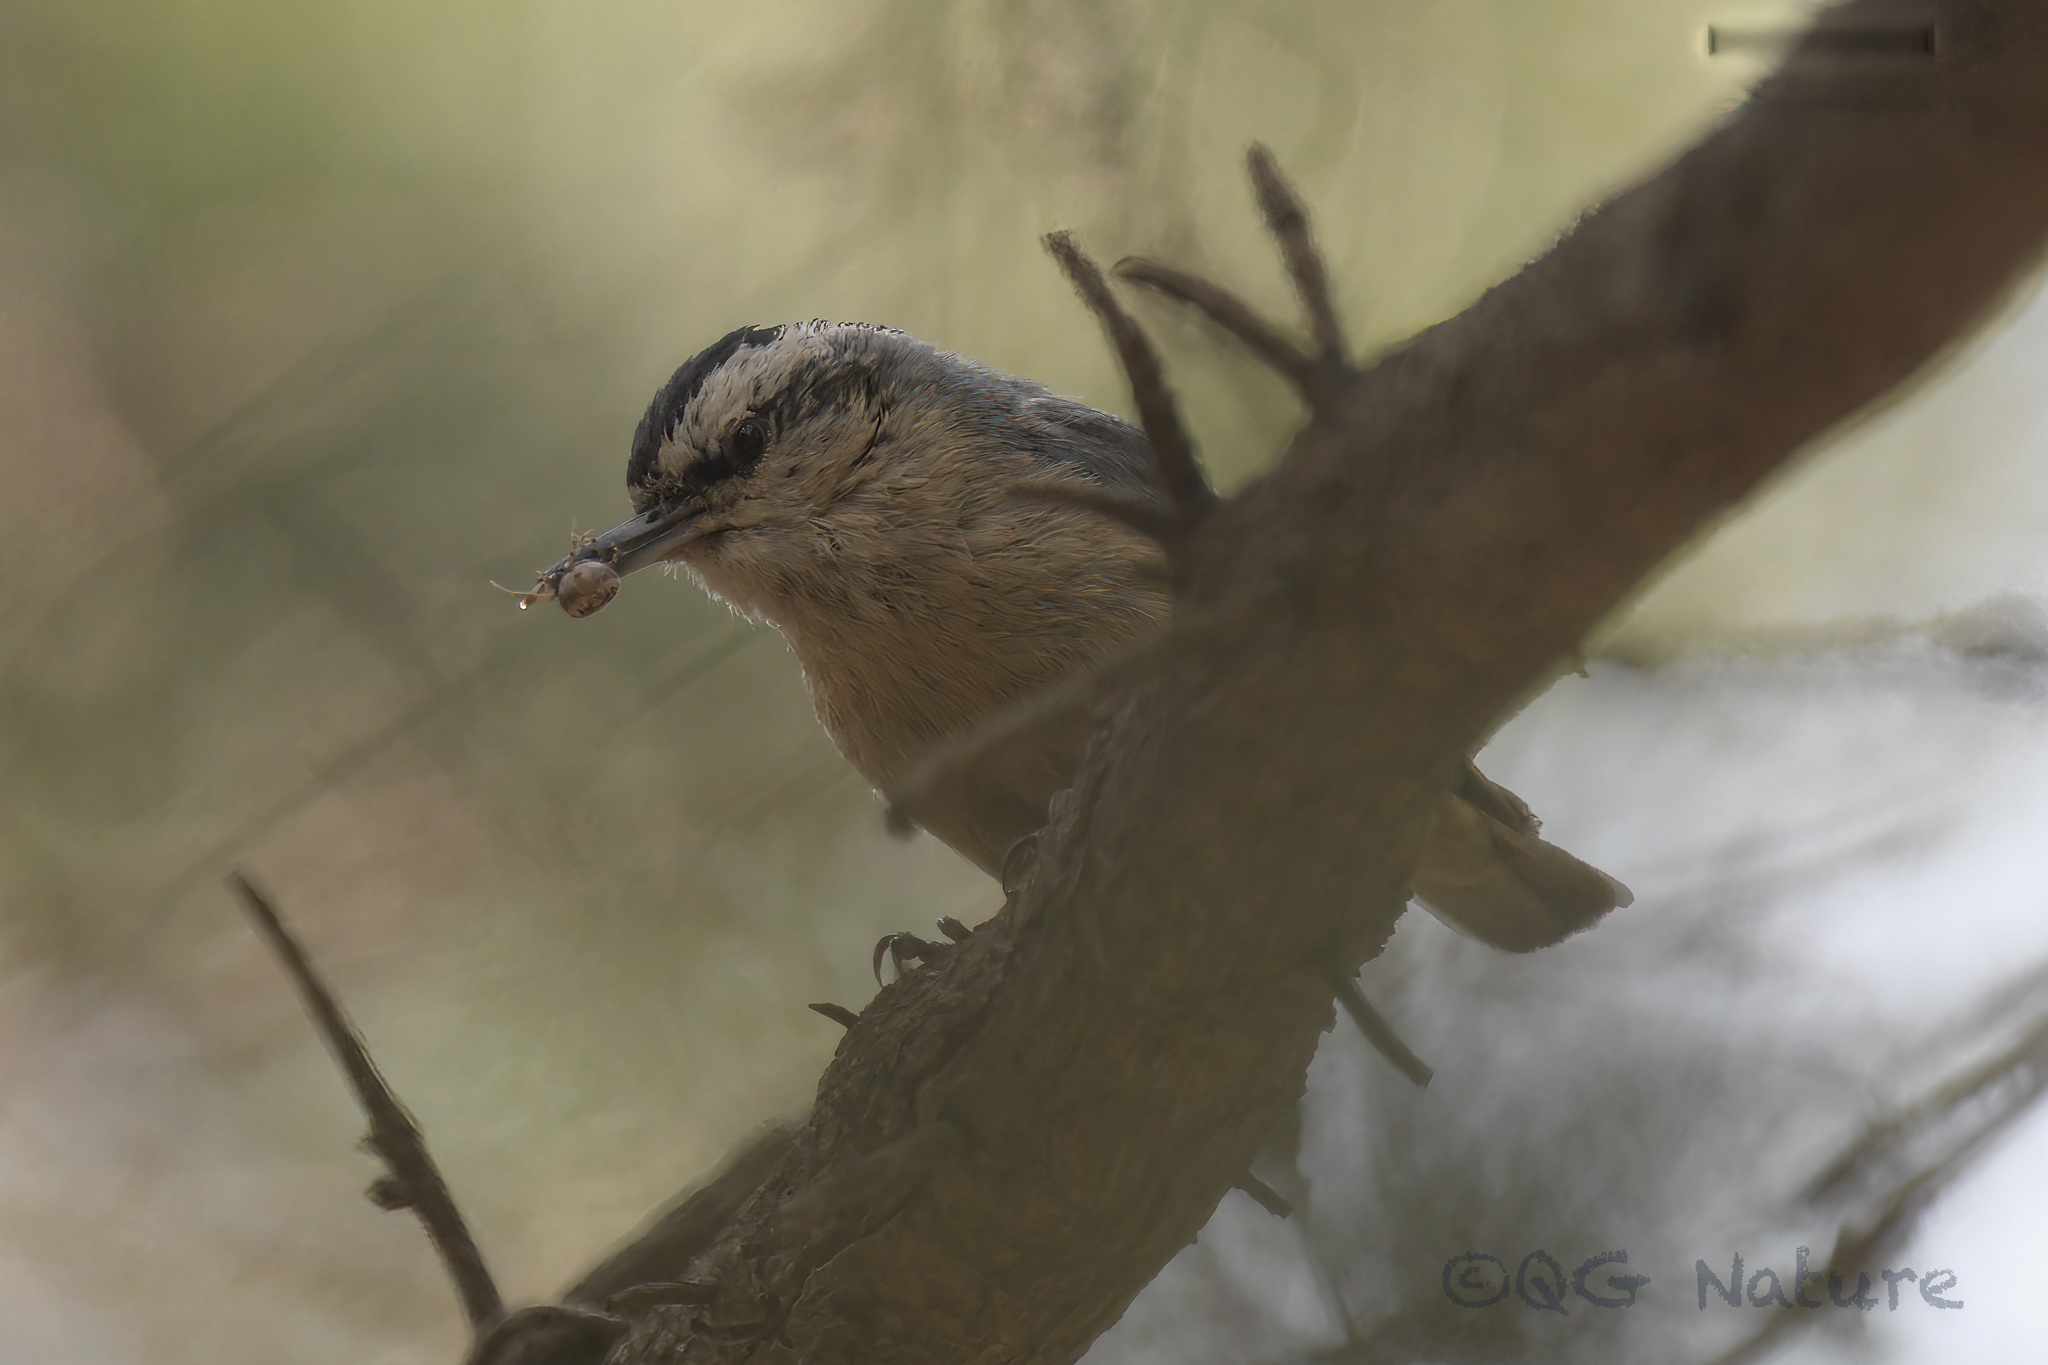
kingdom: Animalia
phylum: Chordata
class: Aves
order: Passeriformes
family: Sittidae
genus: Sitta
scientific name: Sitta villosa
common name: Chinese nuthatch
